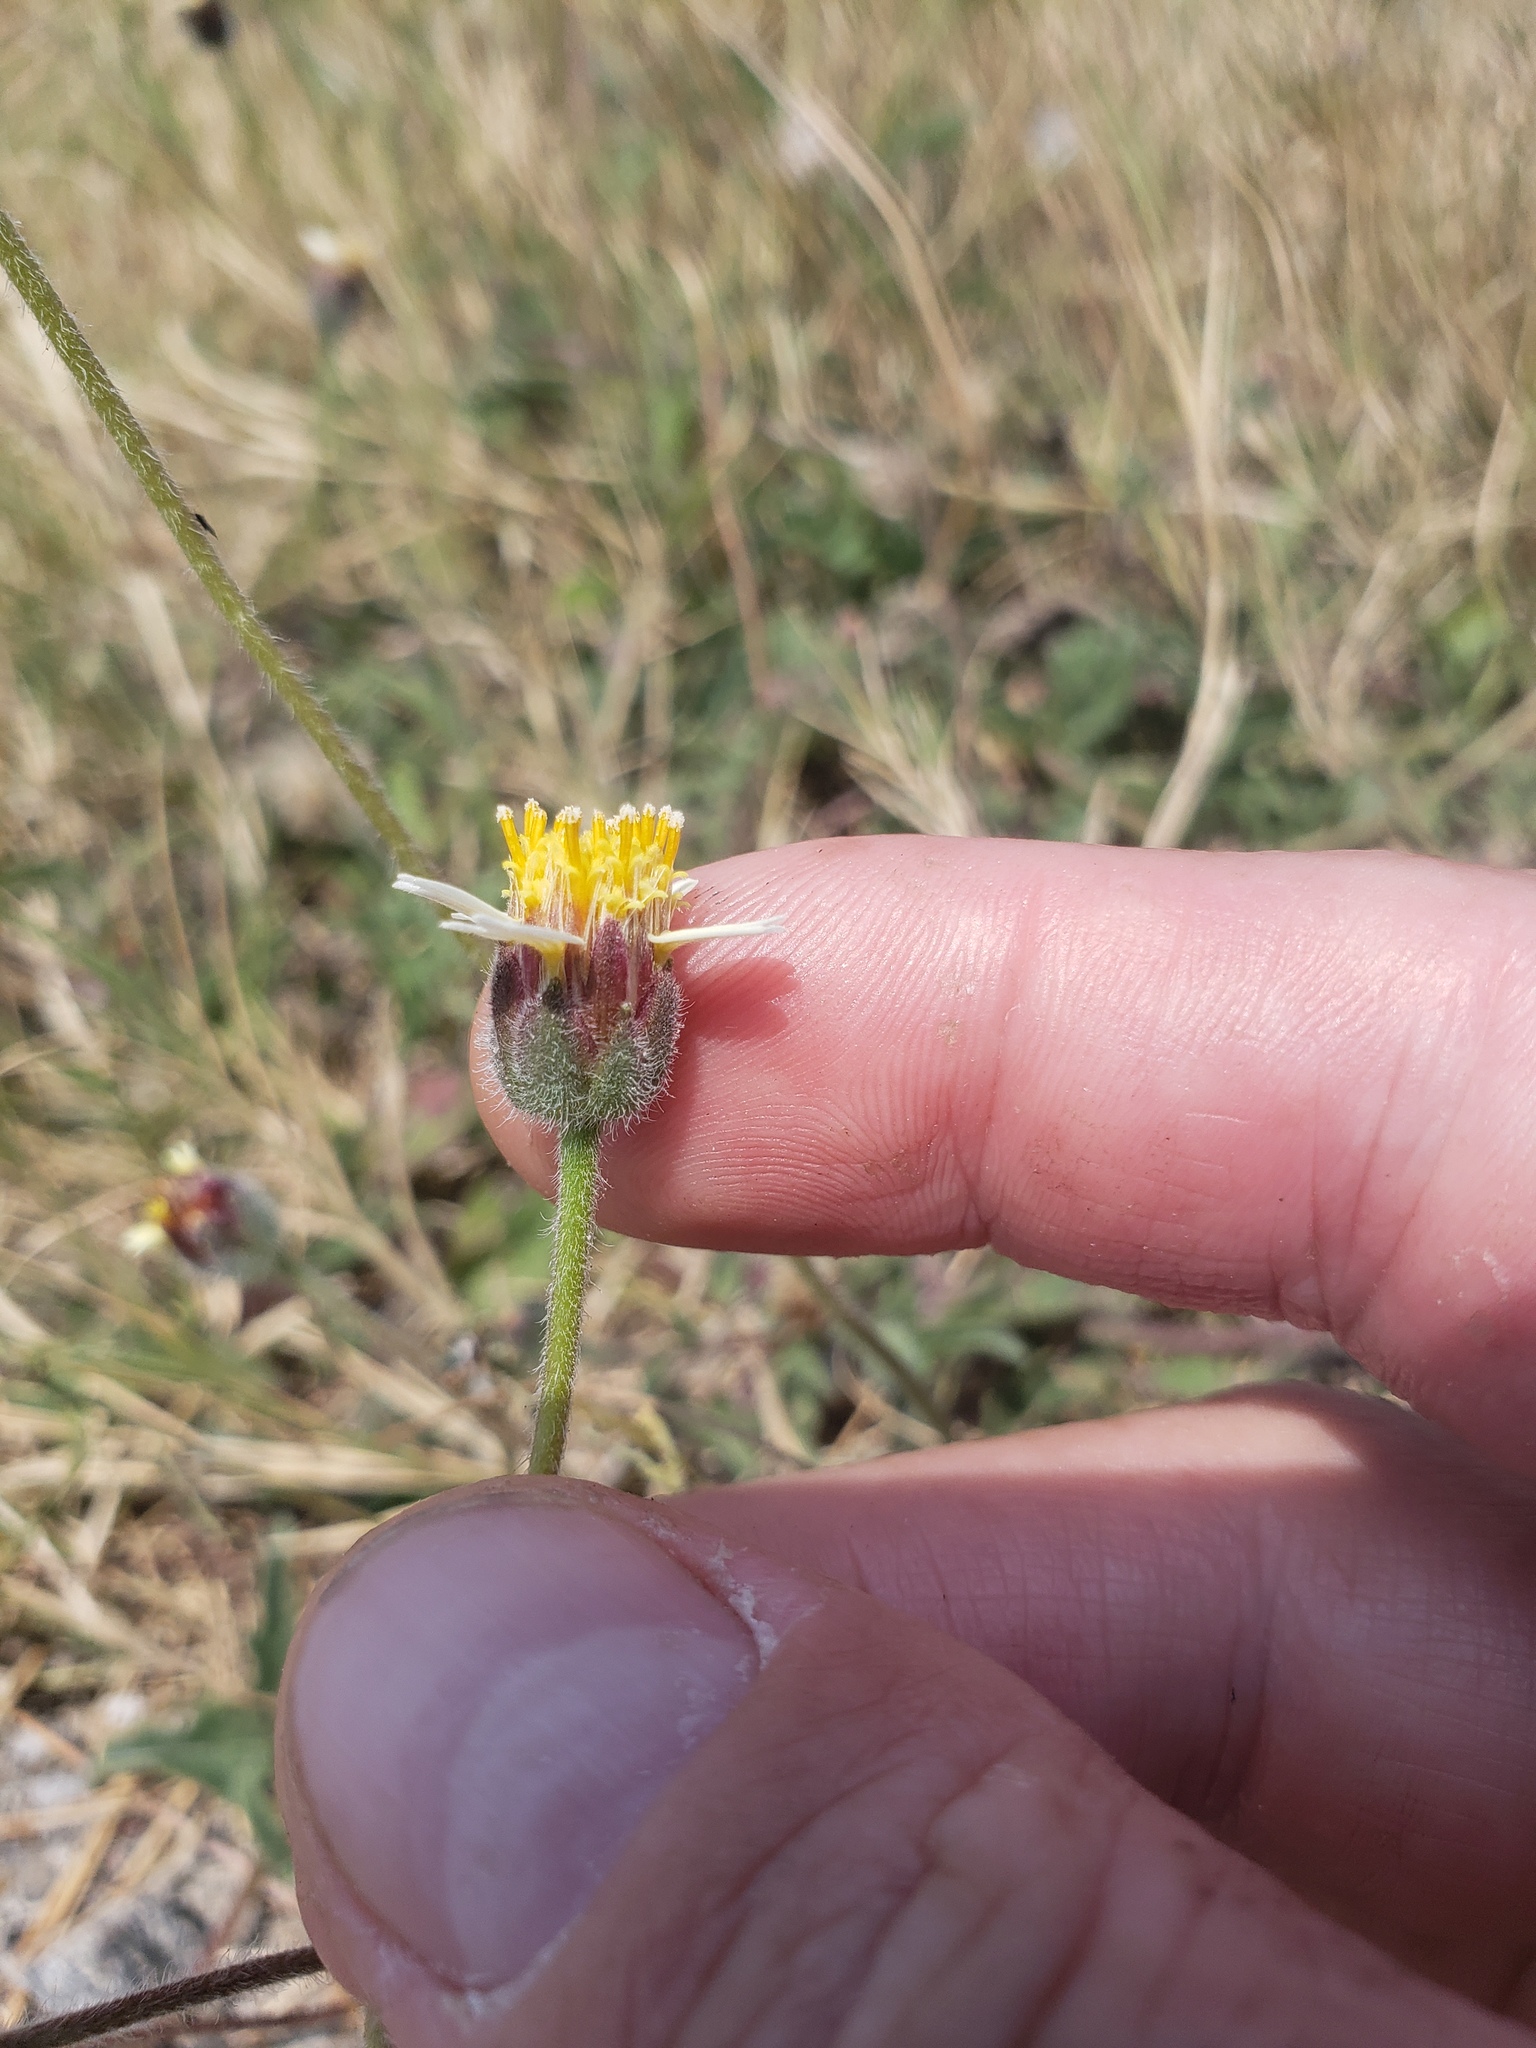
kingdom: Plantae
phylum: Tracheophyta
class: Magnoliopsida
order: Asterales
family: Asteraceae
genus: Tridax
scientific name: Tridax procumbens
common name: Coatbuttons
